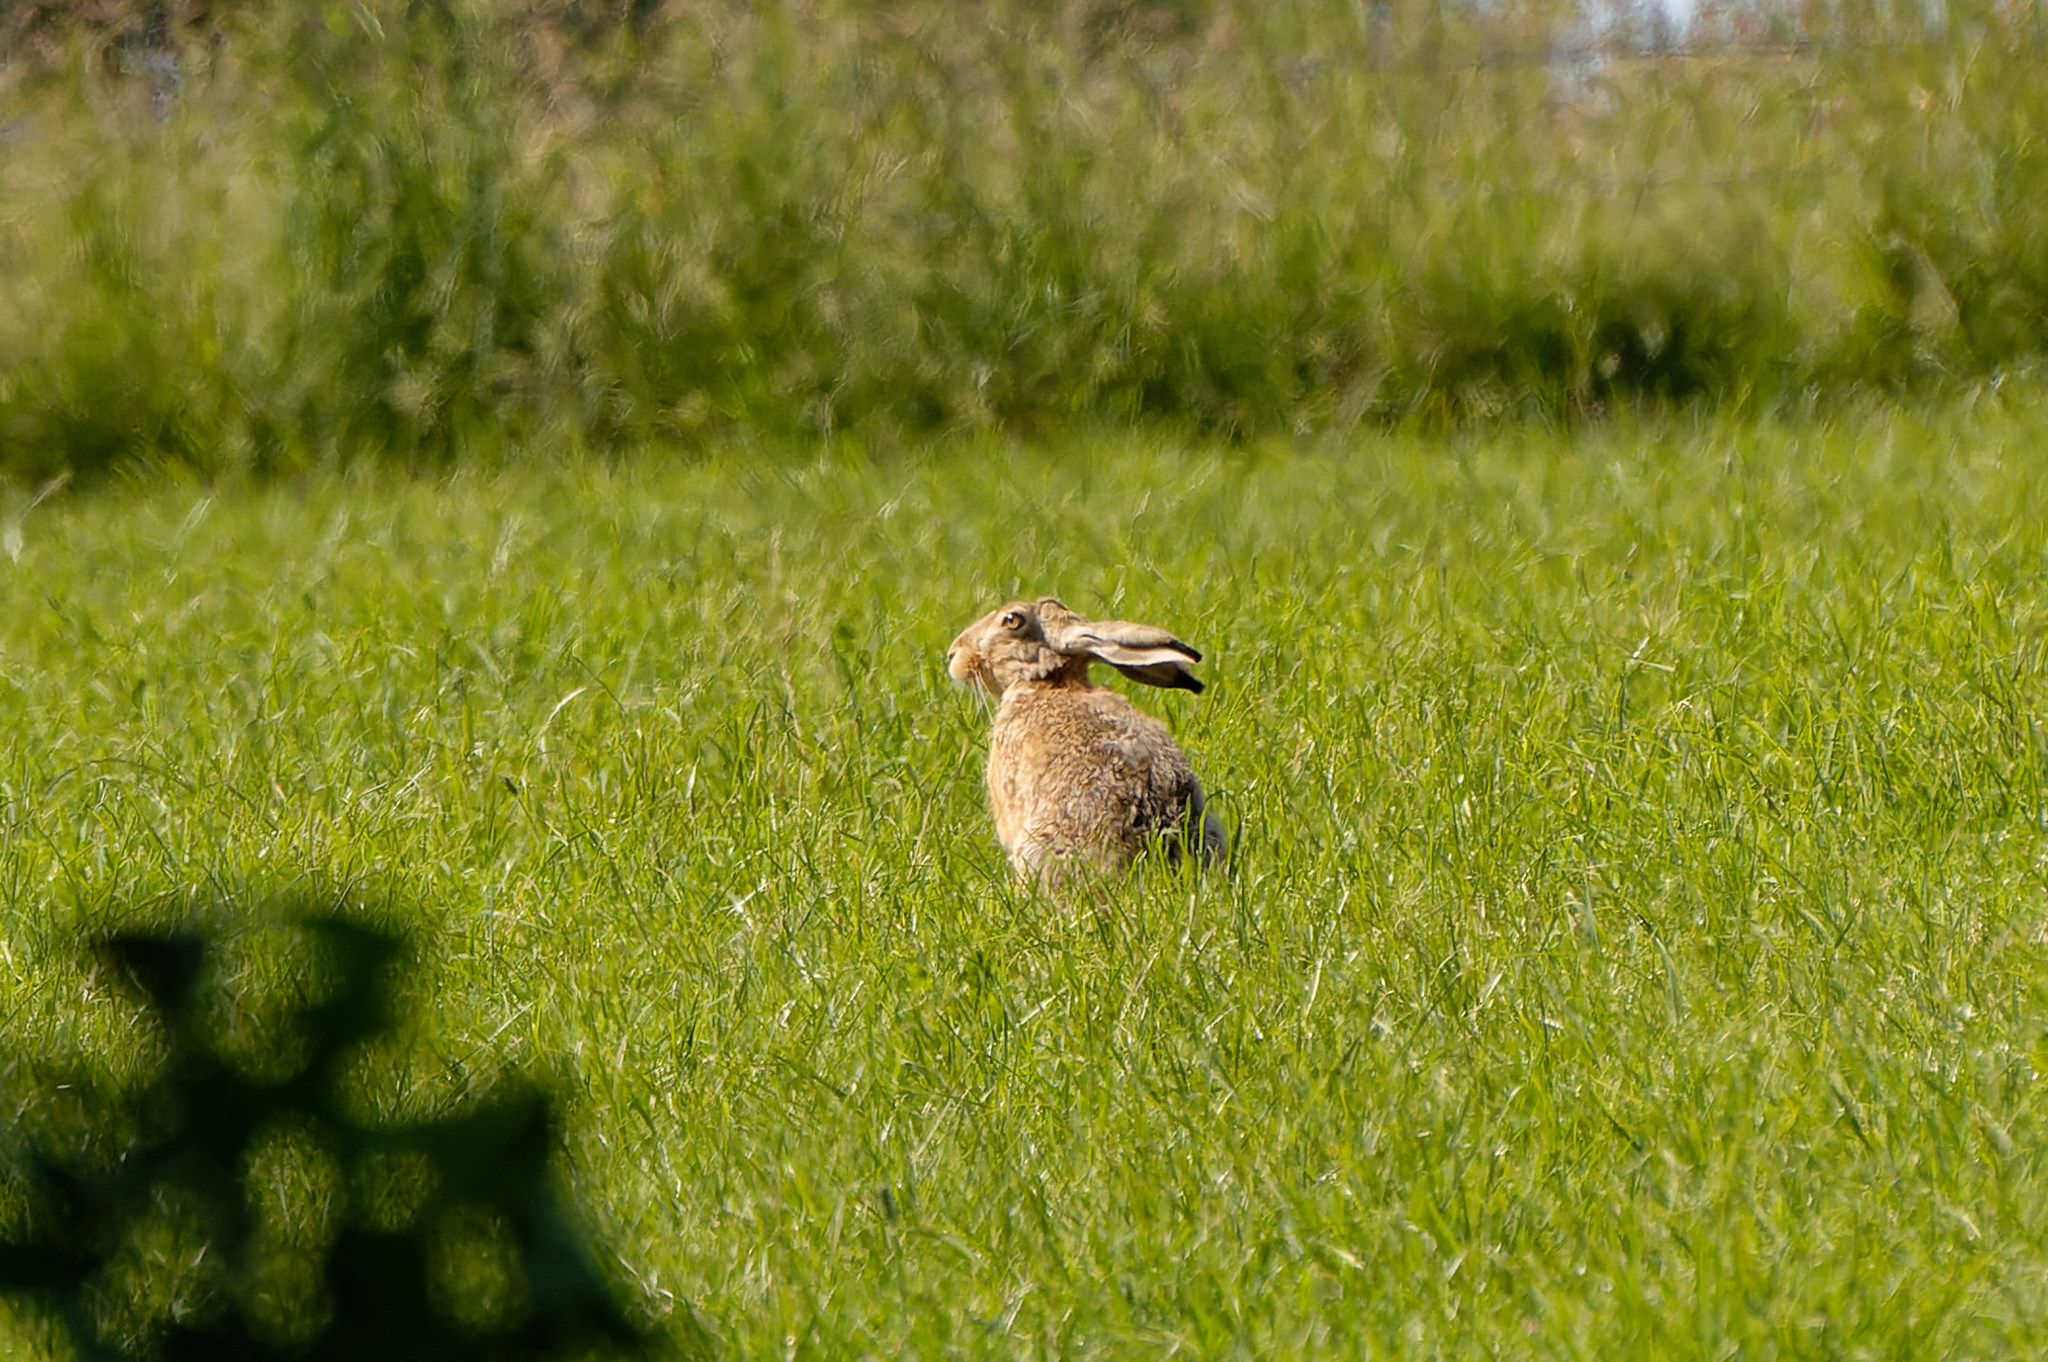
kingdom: Animalia
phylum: Chordata
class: Mammalia
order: Lagomorpha
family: Leporidae
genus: Lepus
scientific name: Lepus europaeus
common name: European hare
